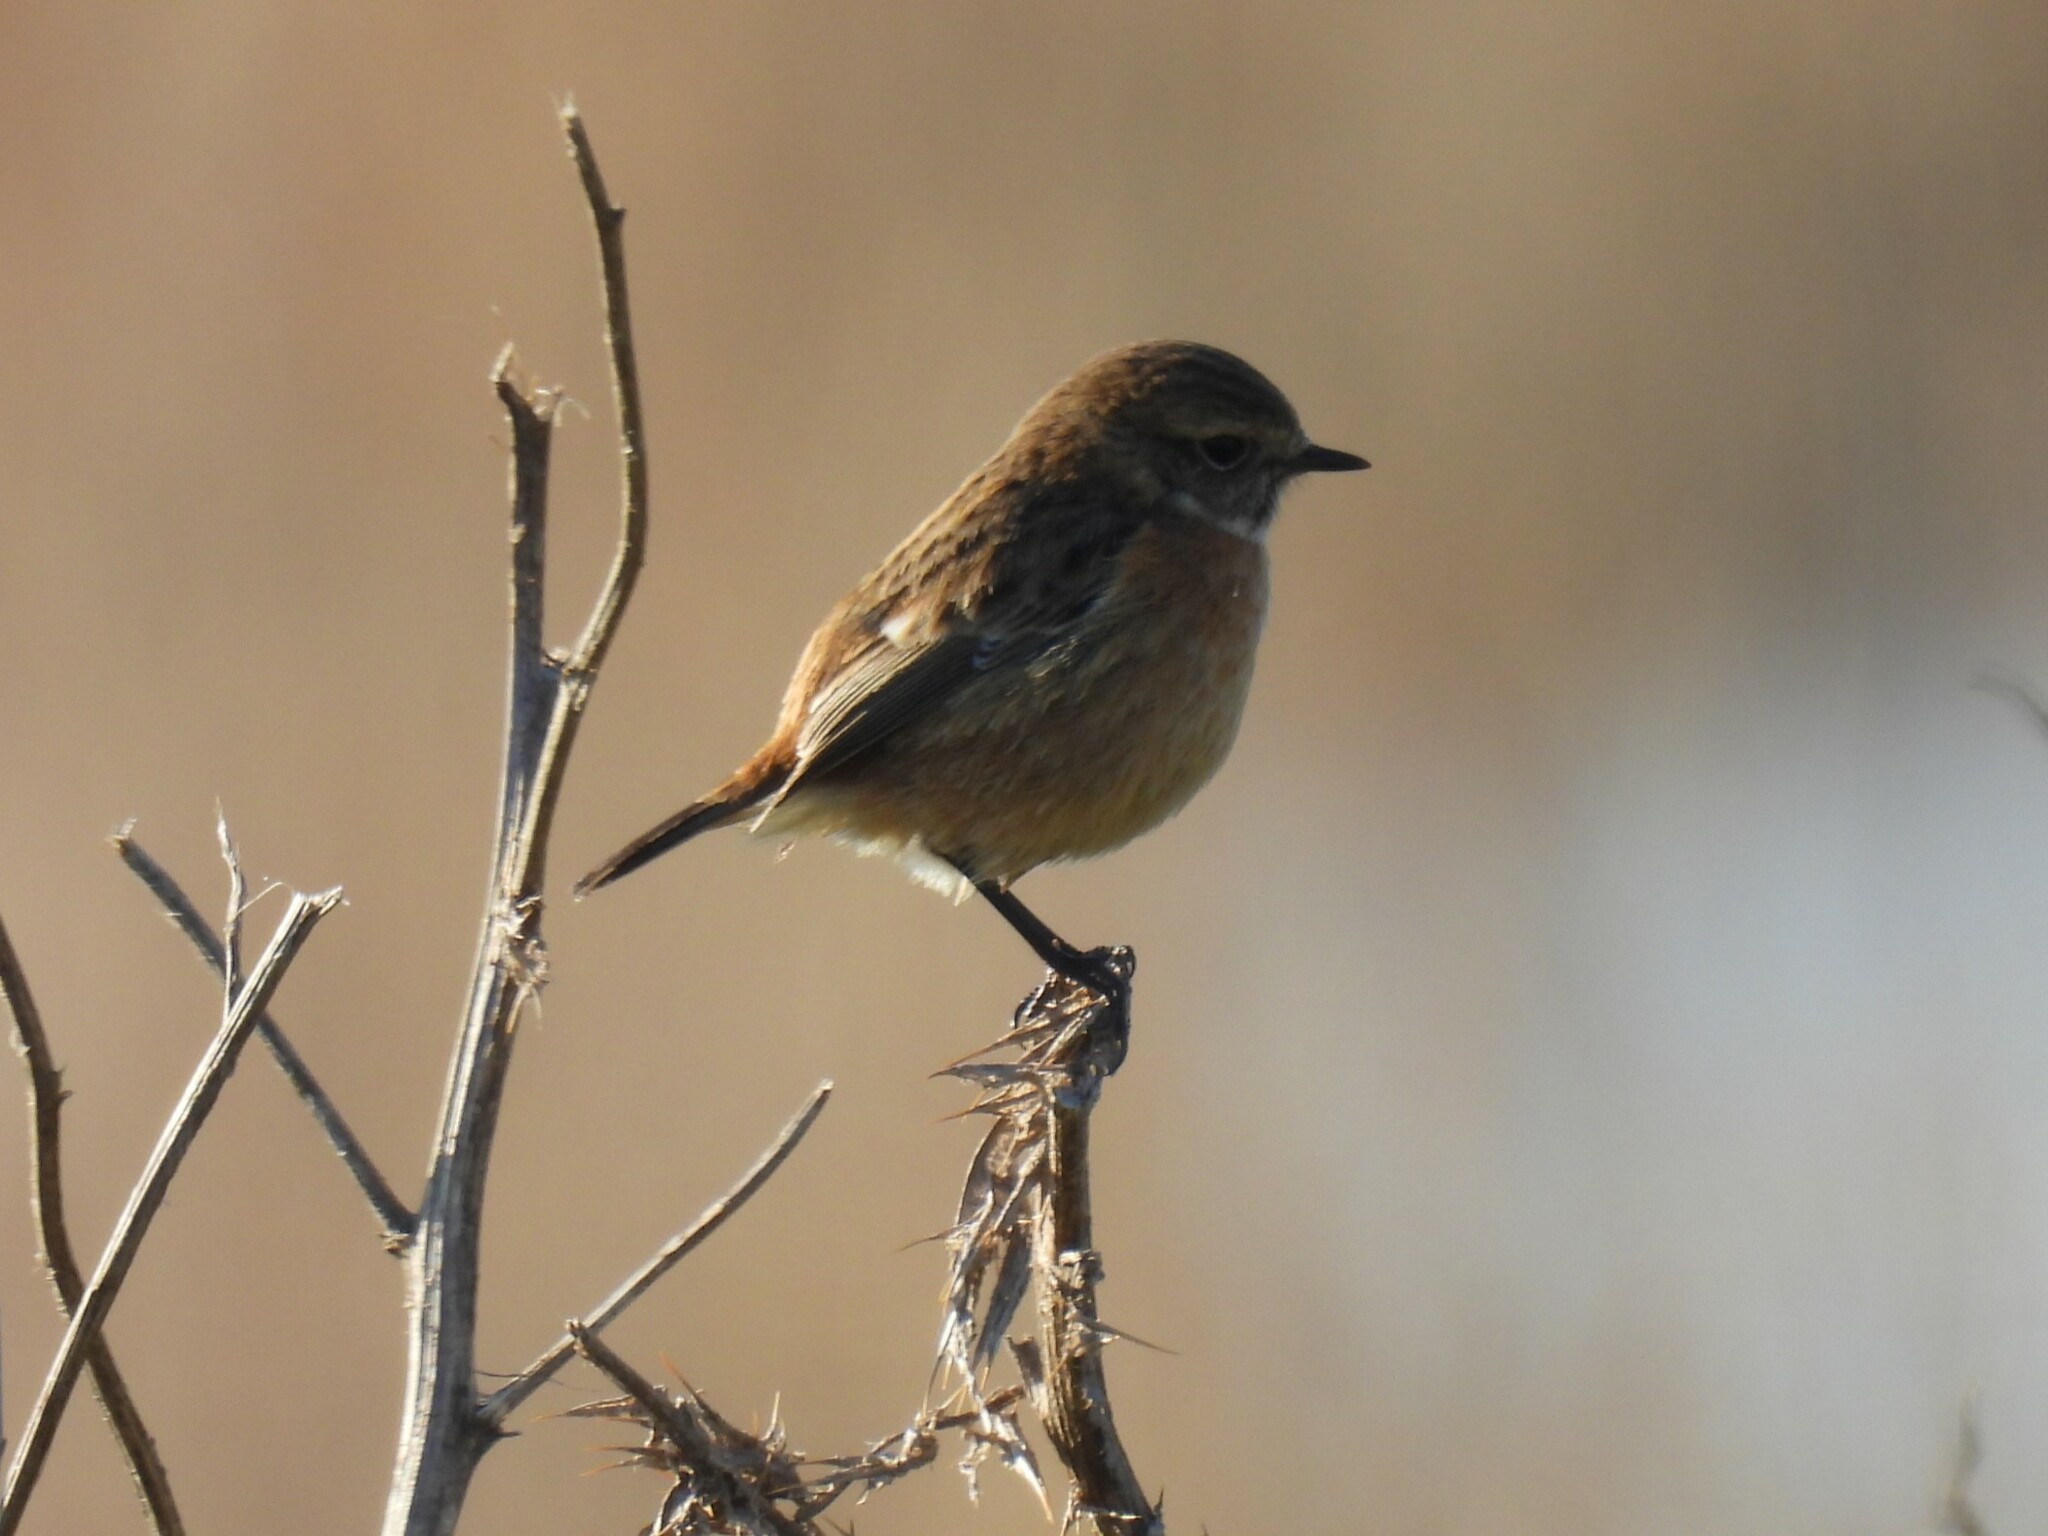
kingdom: Animalia
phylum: Chordata
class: Aves
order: Passeriformes
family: Muscicapidae
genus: Saxicola
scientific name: Saxicola rubicola
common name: European stonechat
